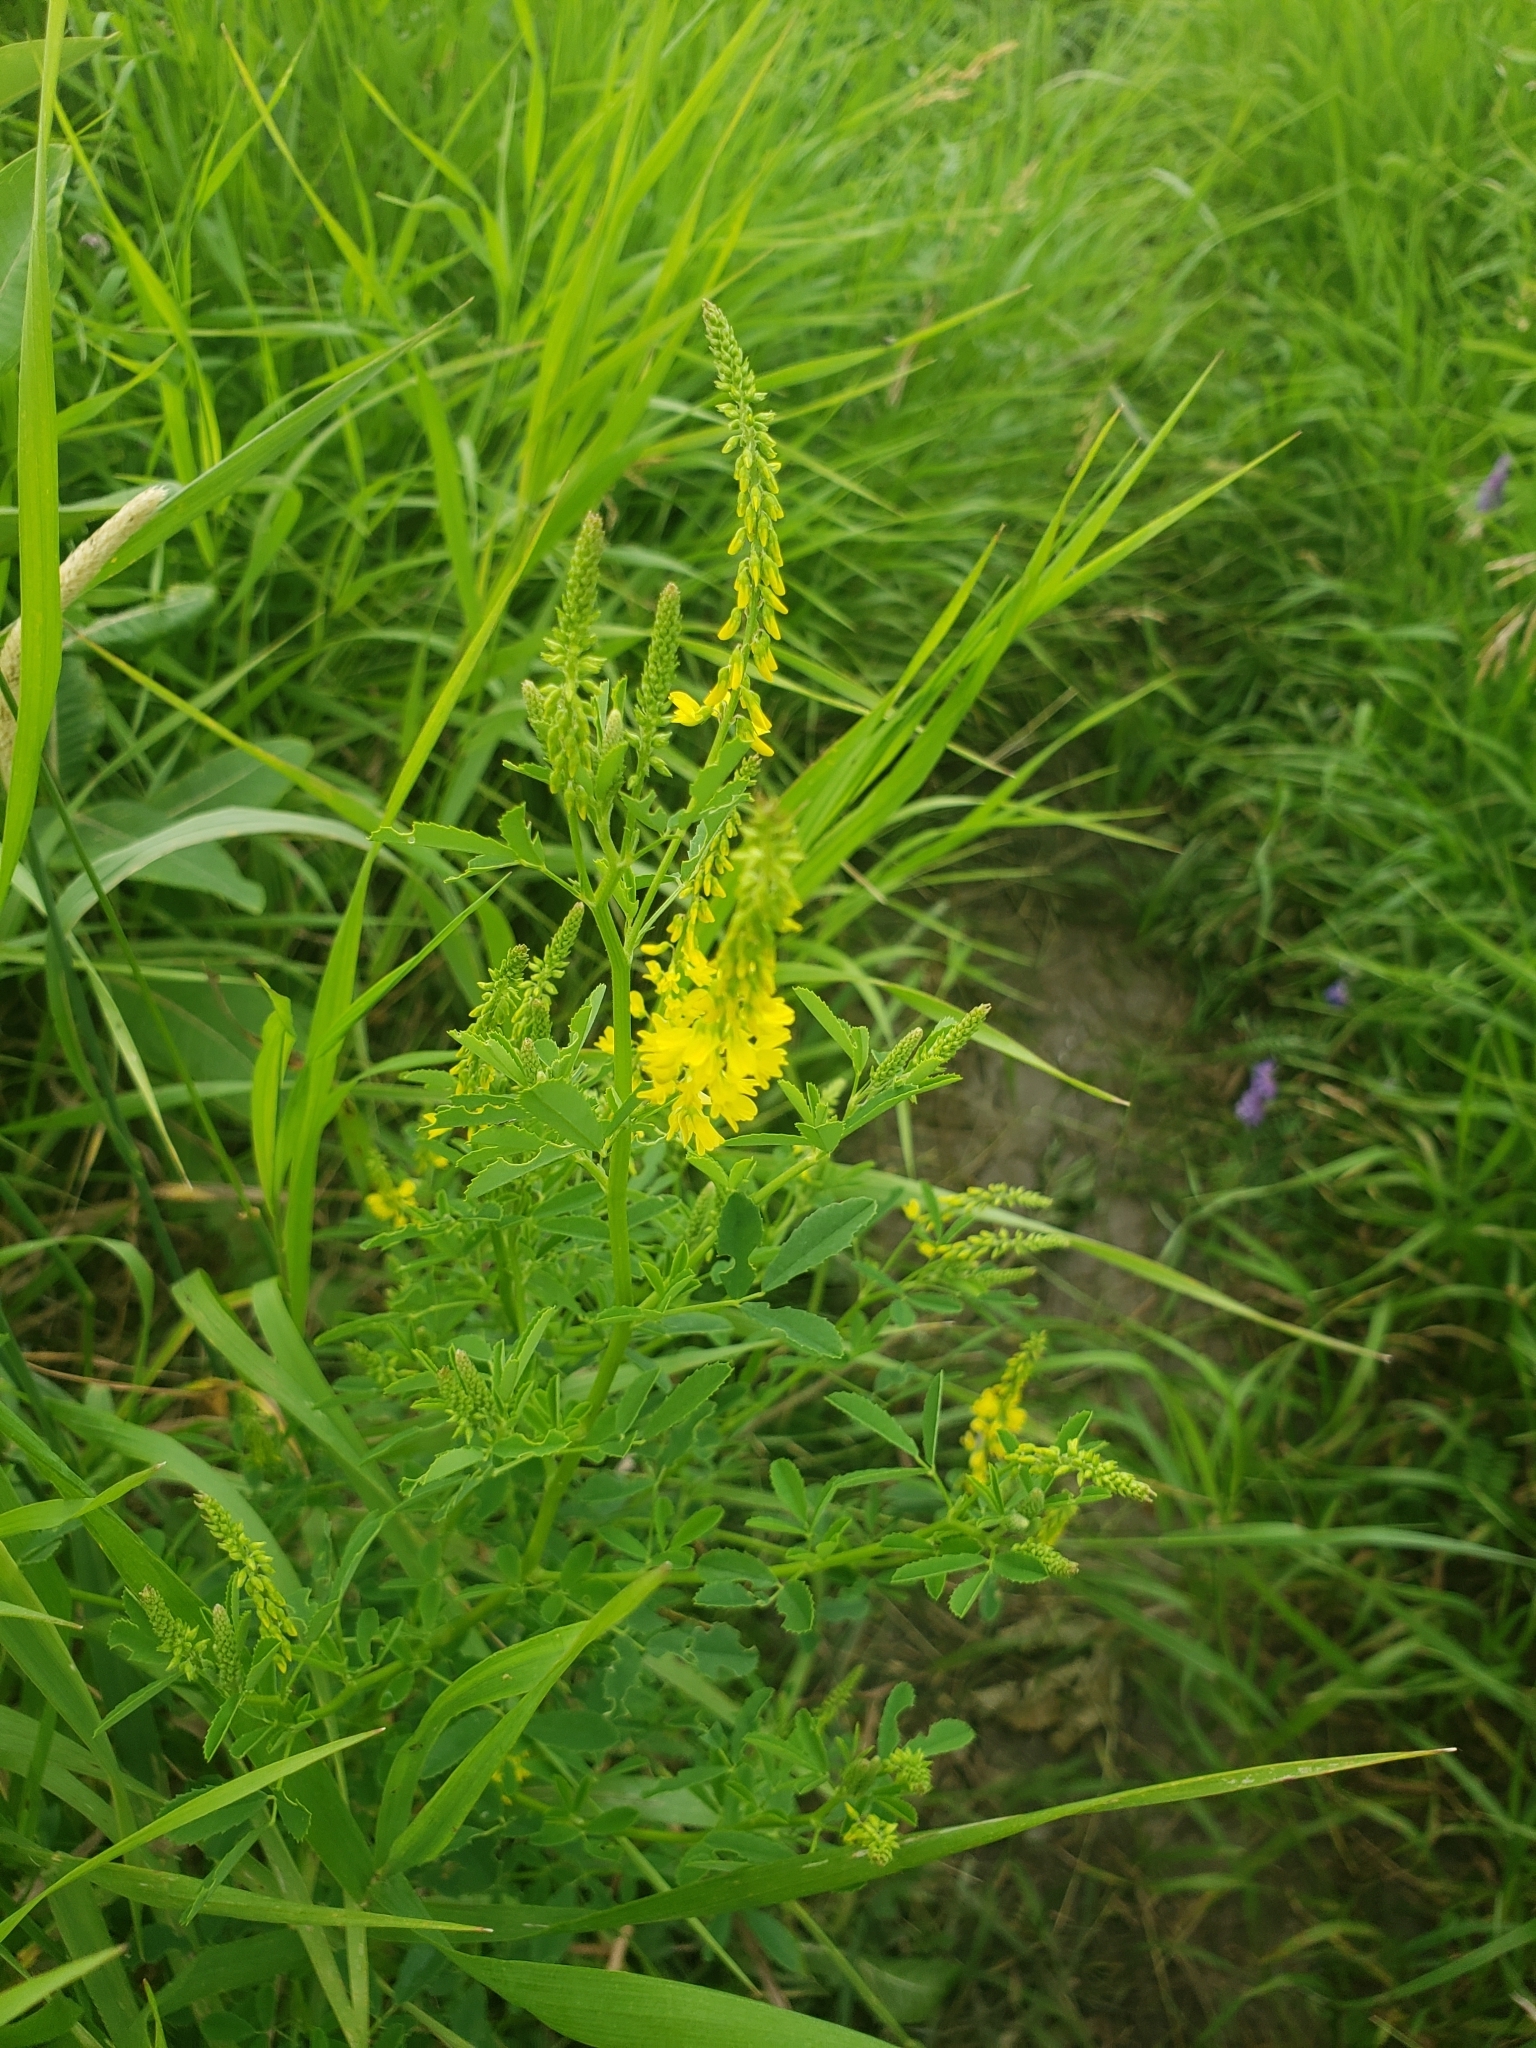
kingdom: Plantae
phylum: Tracheophyta
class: Magnoliopsida
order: Fabales
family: Fabaceae
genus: Melilotus
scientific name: Melilotus officinalis
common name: Sweetclover
